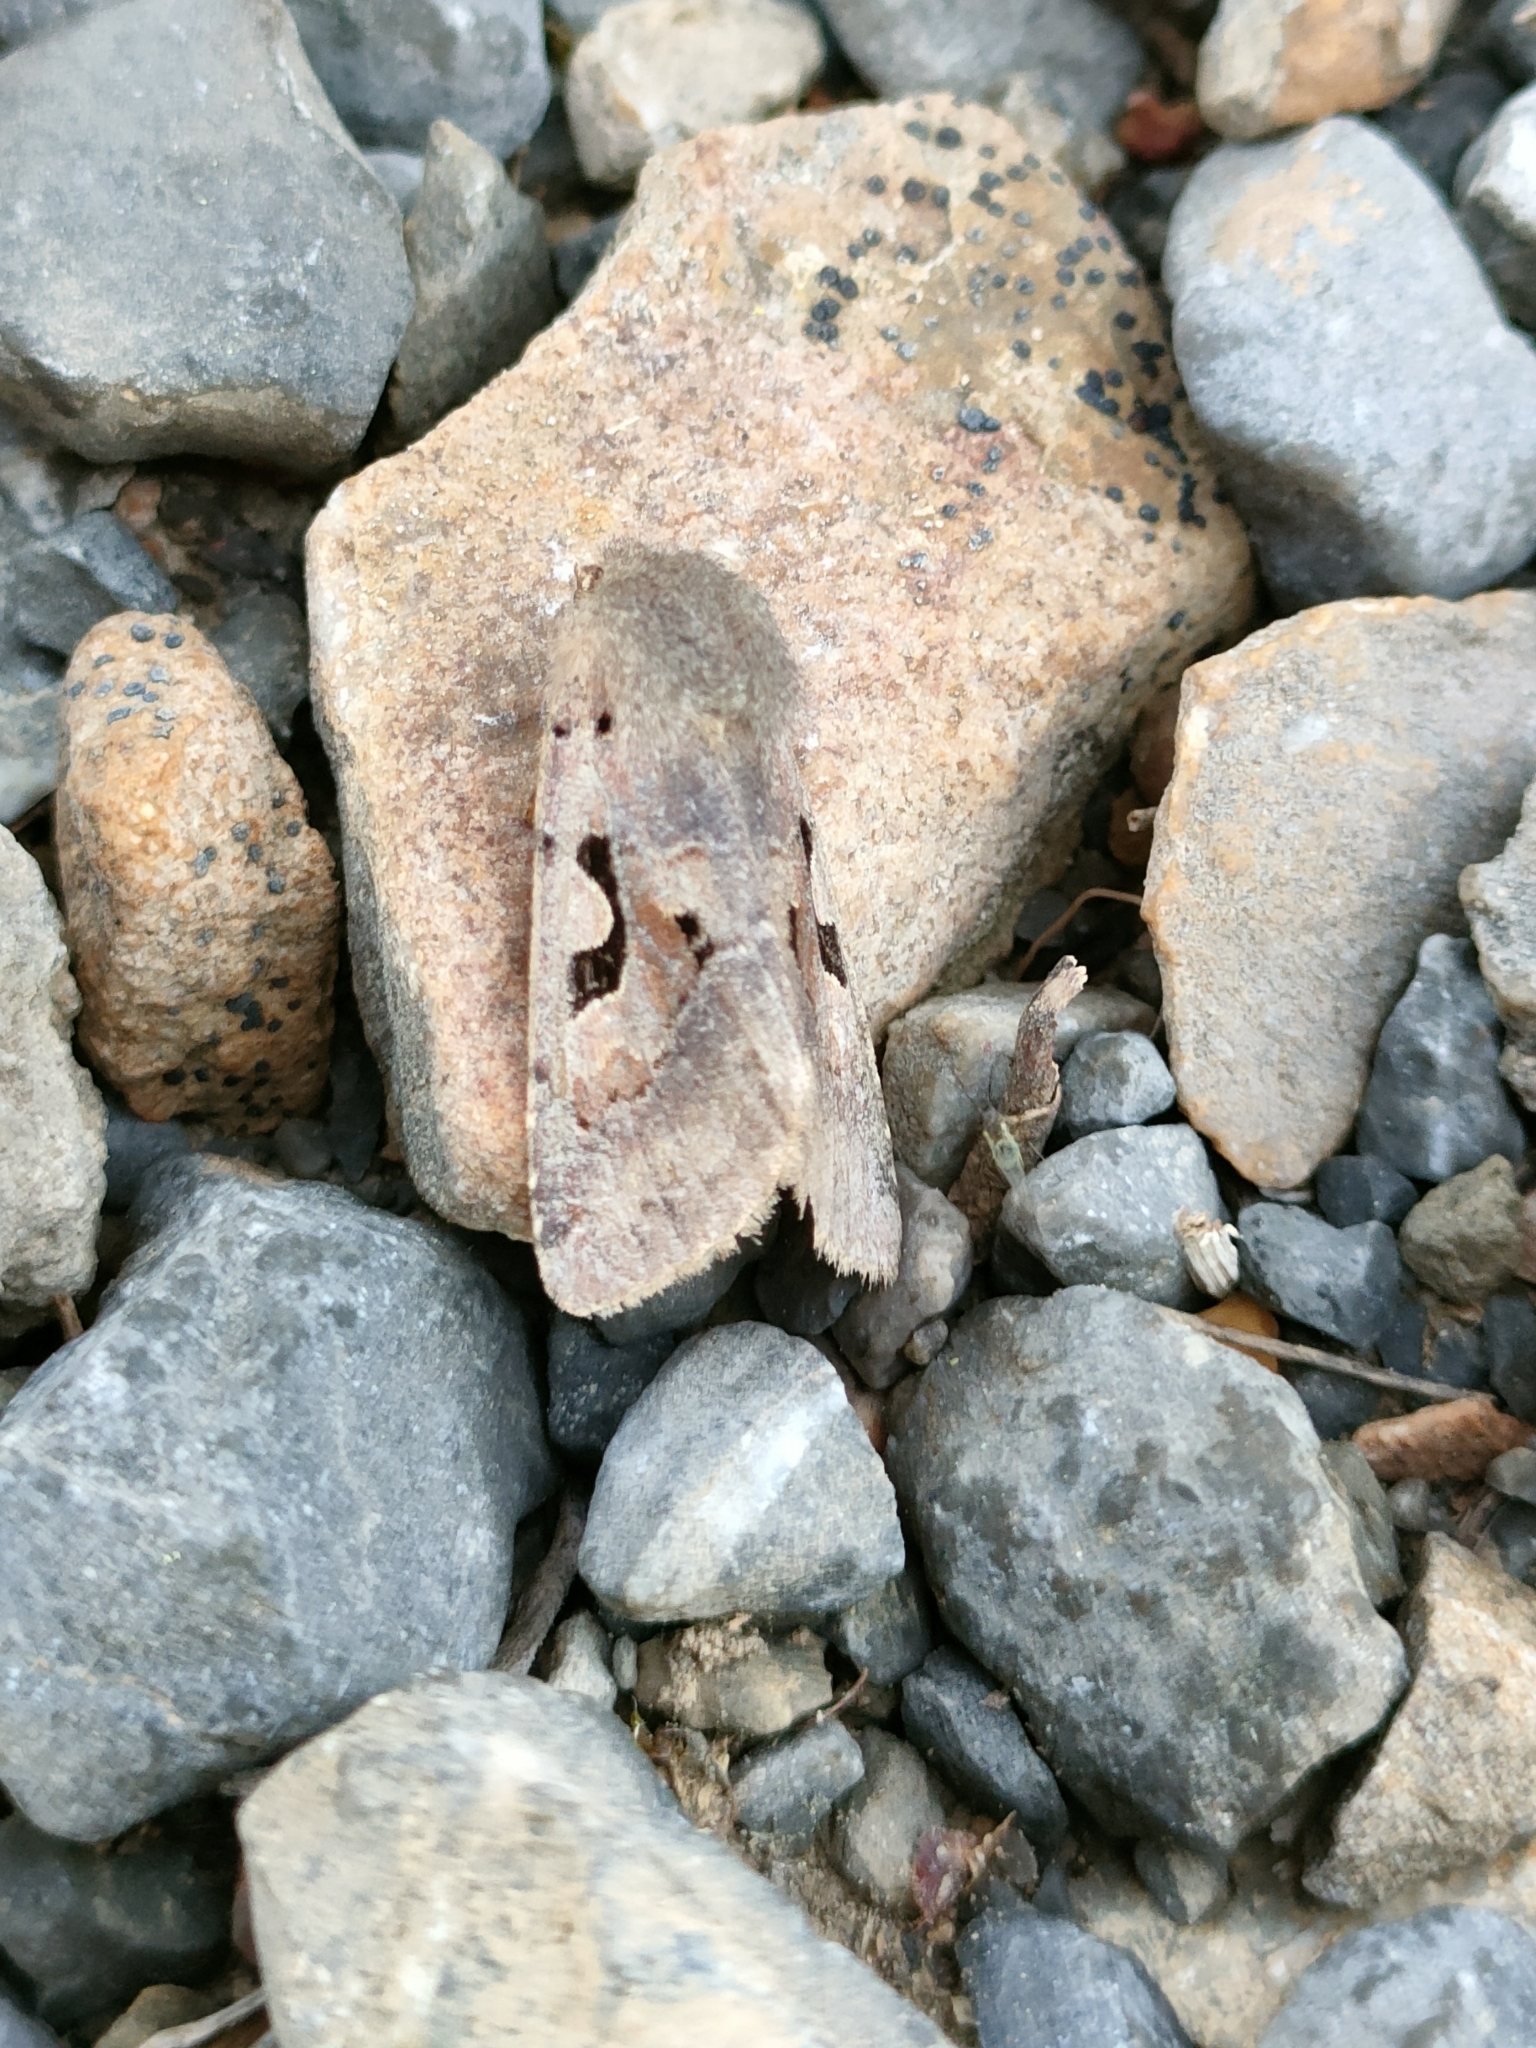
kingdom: Animalia
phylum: Arthropoda
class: Insecta
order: Lepidoptera
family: Noctuidae
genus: Orthosia
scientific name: Orthosia gothica
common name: Hebrew character
